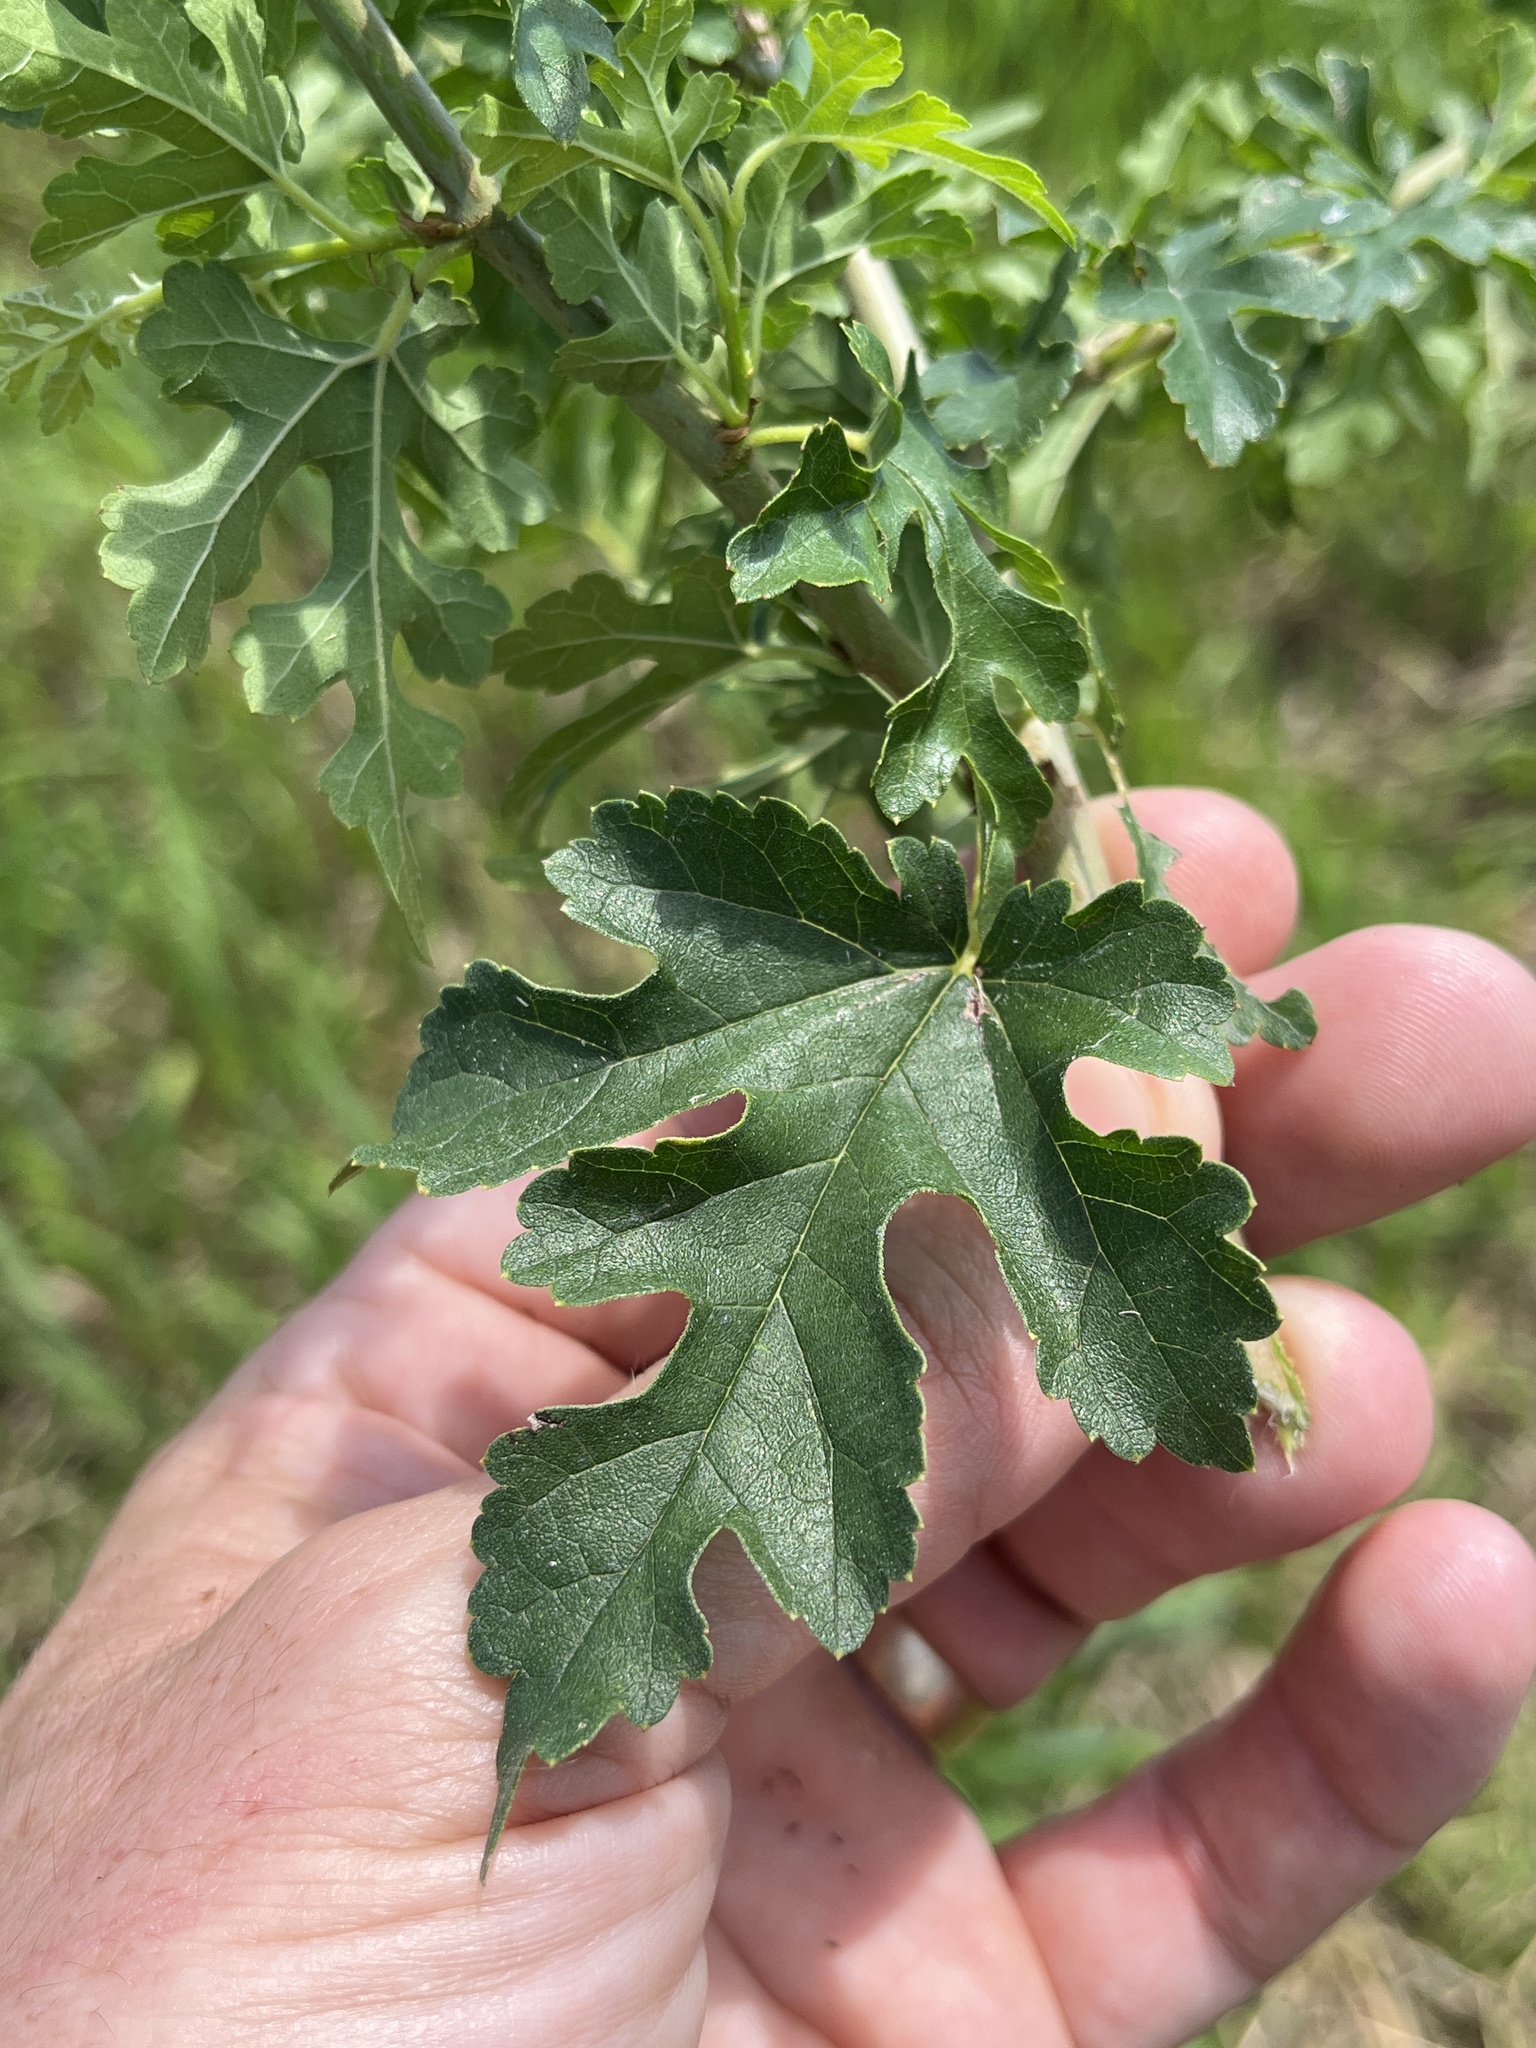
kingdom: Plantae
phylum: Tracheophyta
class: Magnoliopsida
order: Rosales
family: Moraceae
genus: Morus
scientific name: Morus alba
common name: White mulberry
